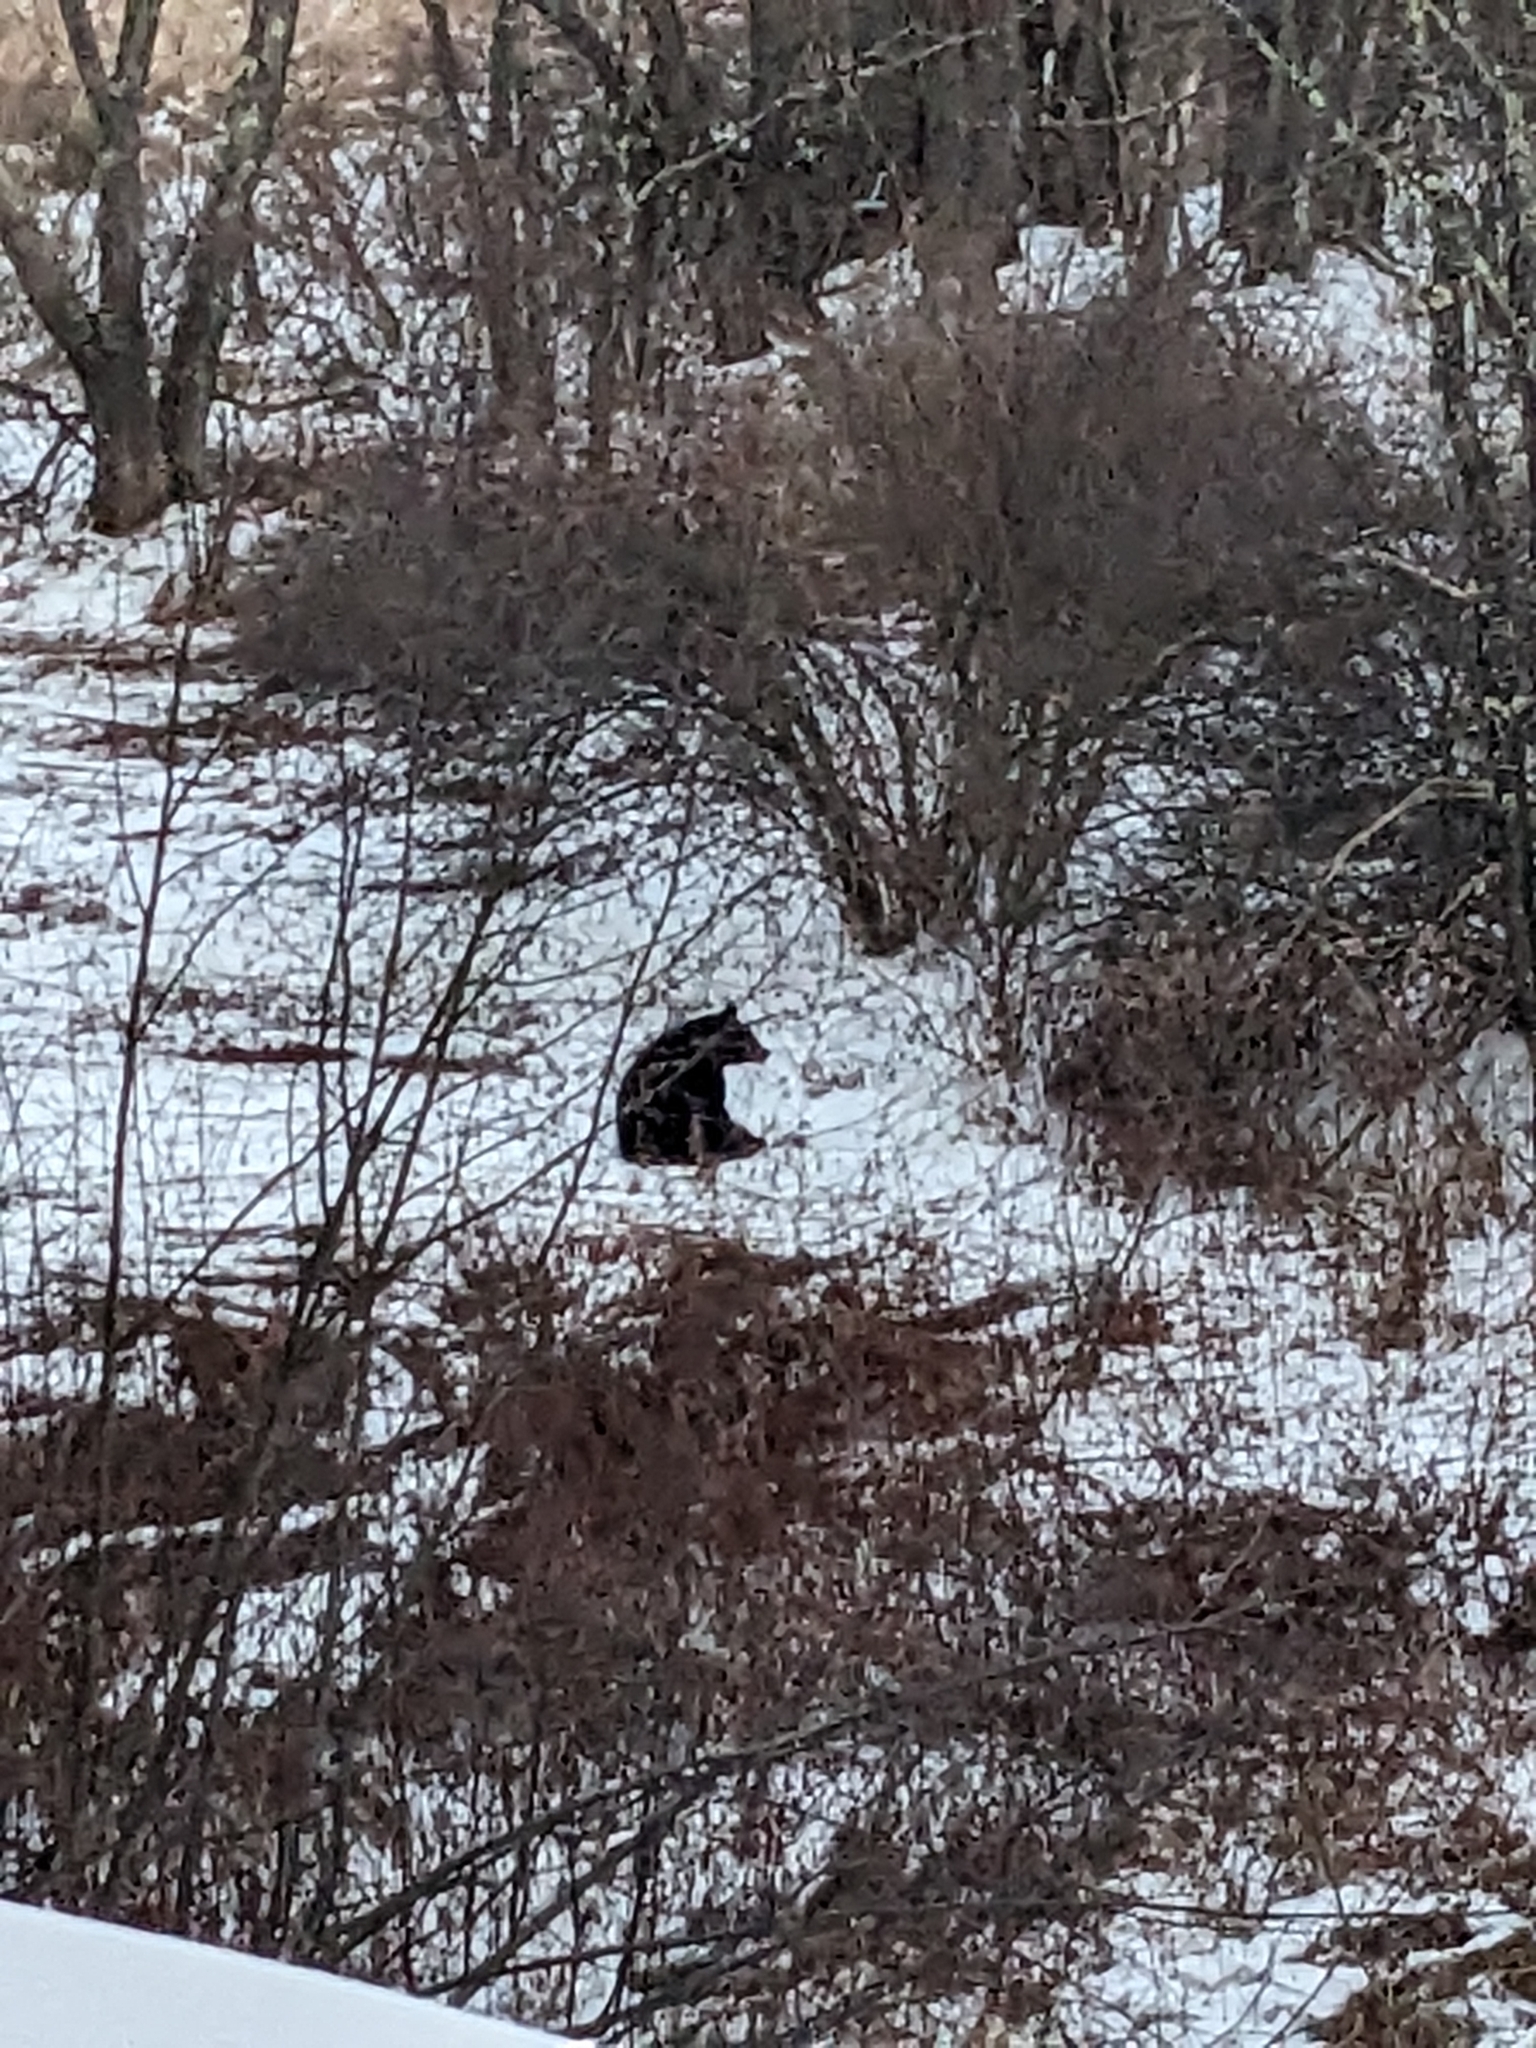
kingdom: Animalia
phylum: Chordata
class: Mammalia
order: Carnivora
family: Ursidae
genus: Ursus
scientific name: Ursus americanus
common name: American black bear
